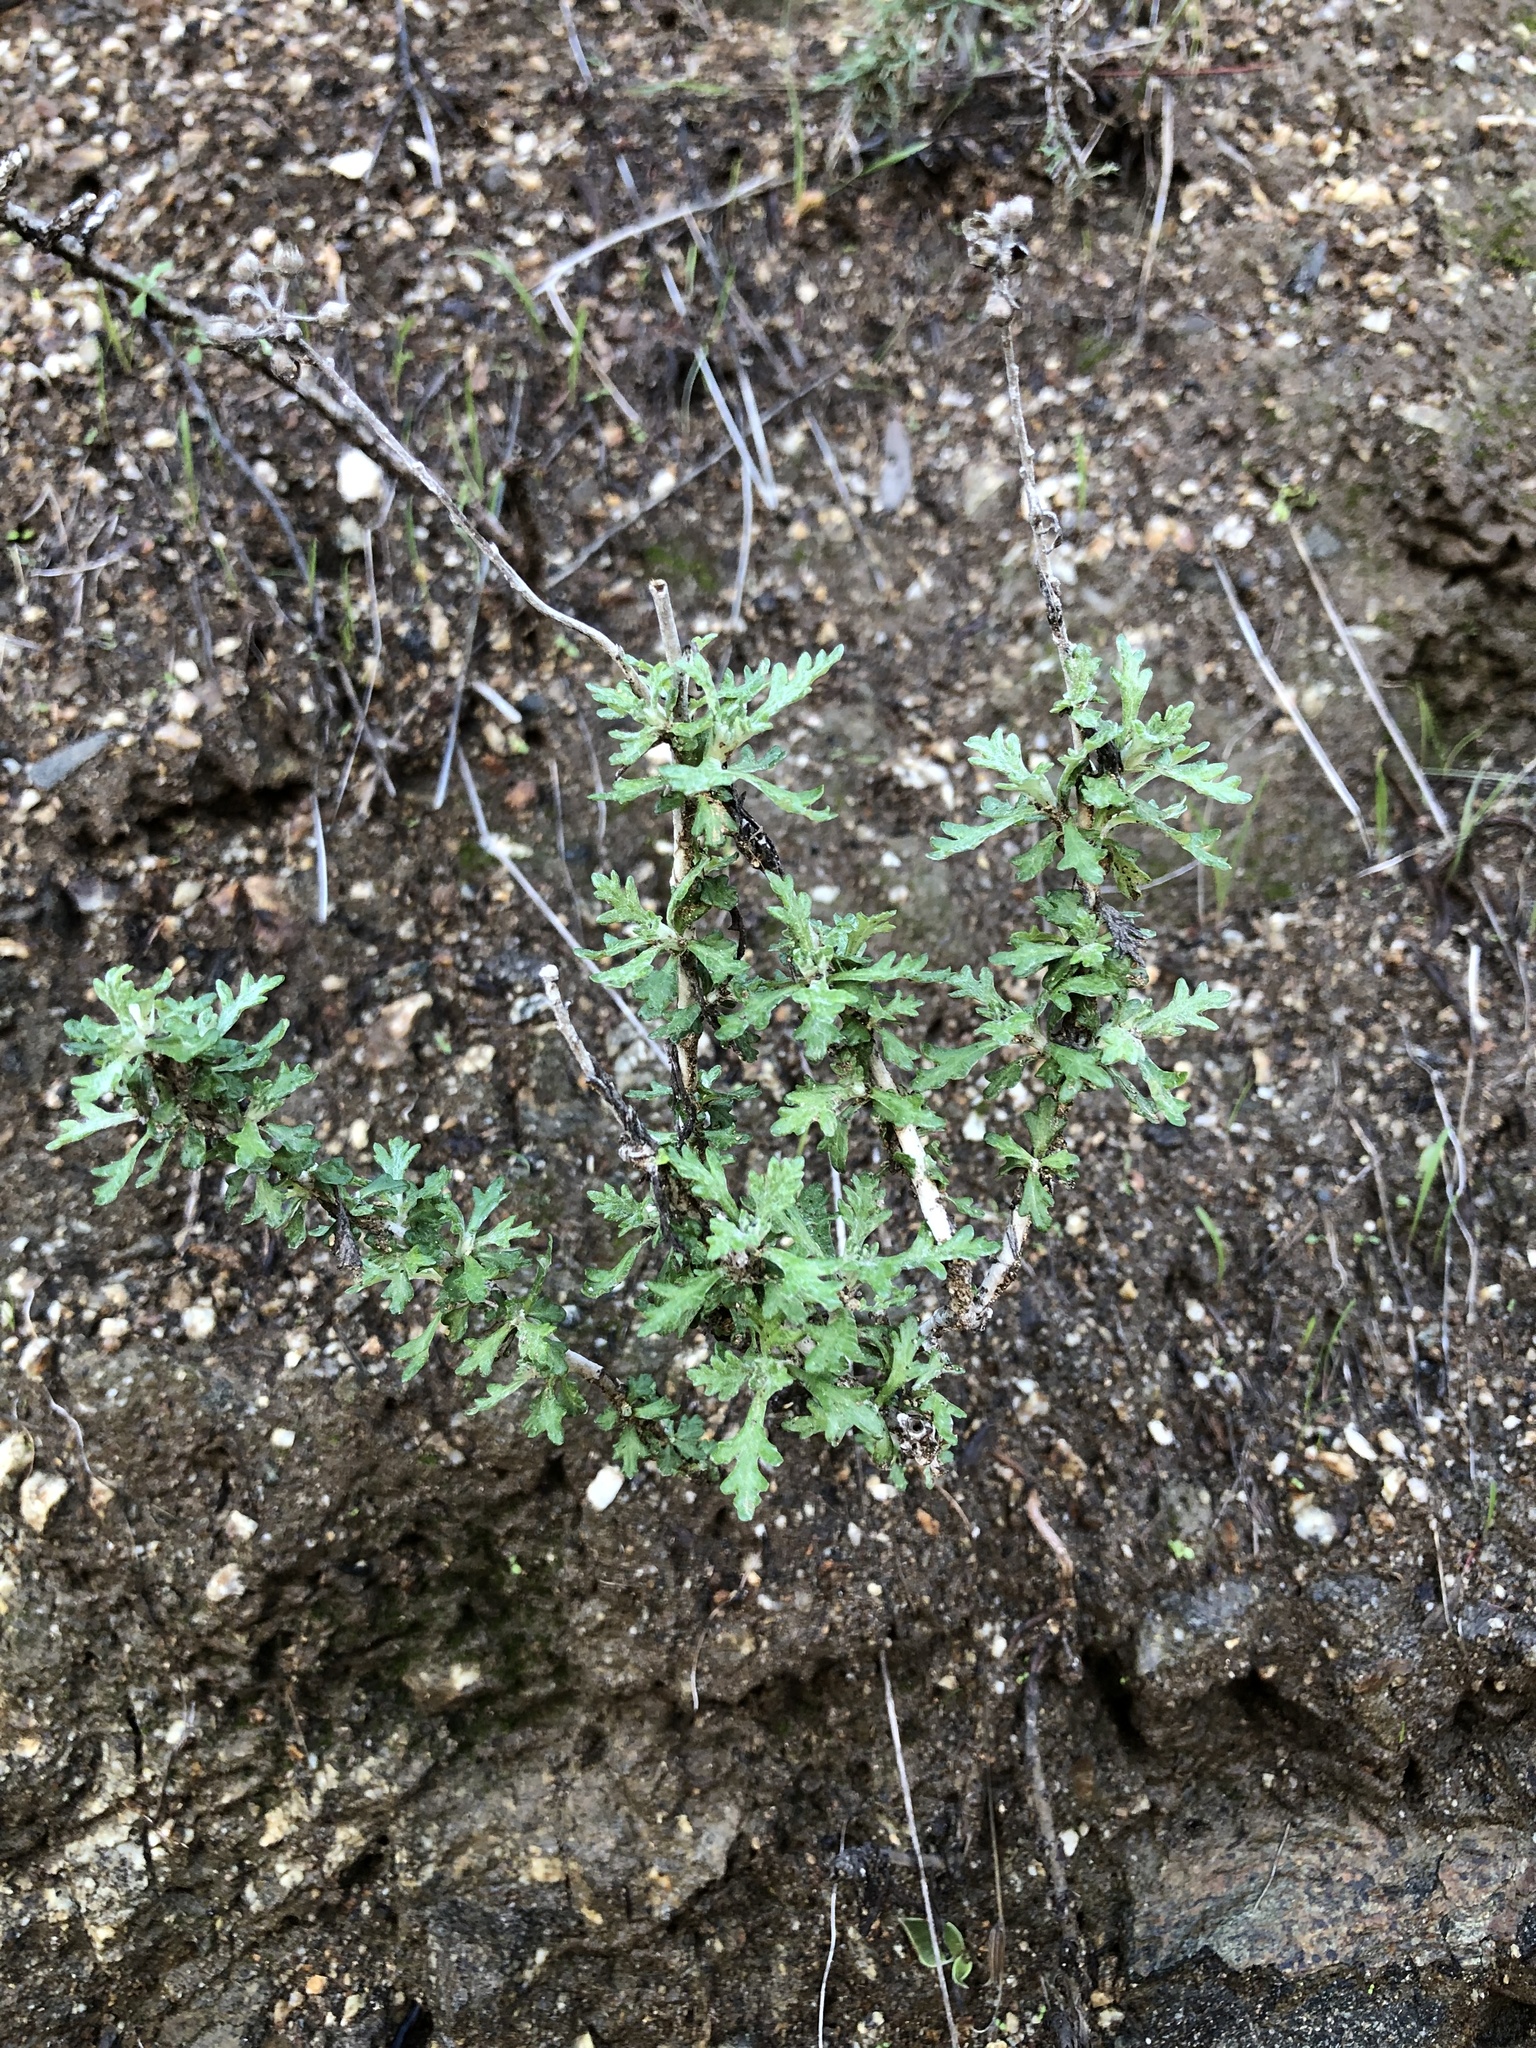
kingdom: Plantae
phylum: Tracheophyta
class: Magnoliopsida
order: Asterales
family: Asteraceae
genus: Ambrosia
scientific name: Ambrosia psilostachya
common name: Perennial ragweed
